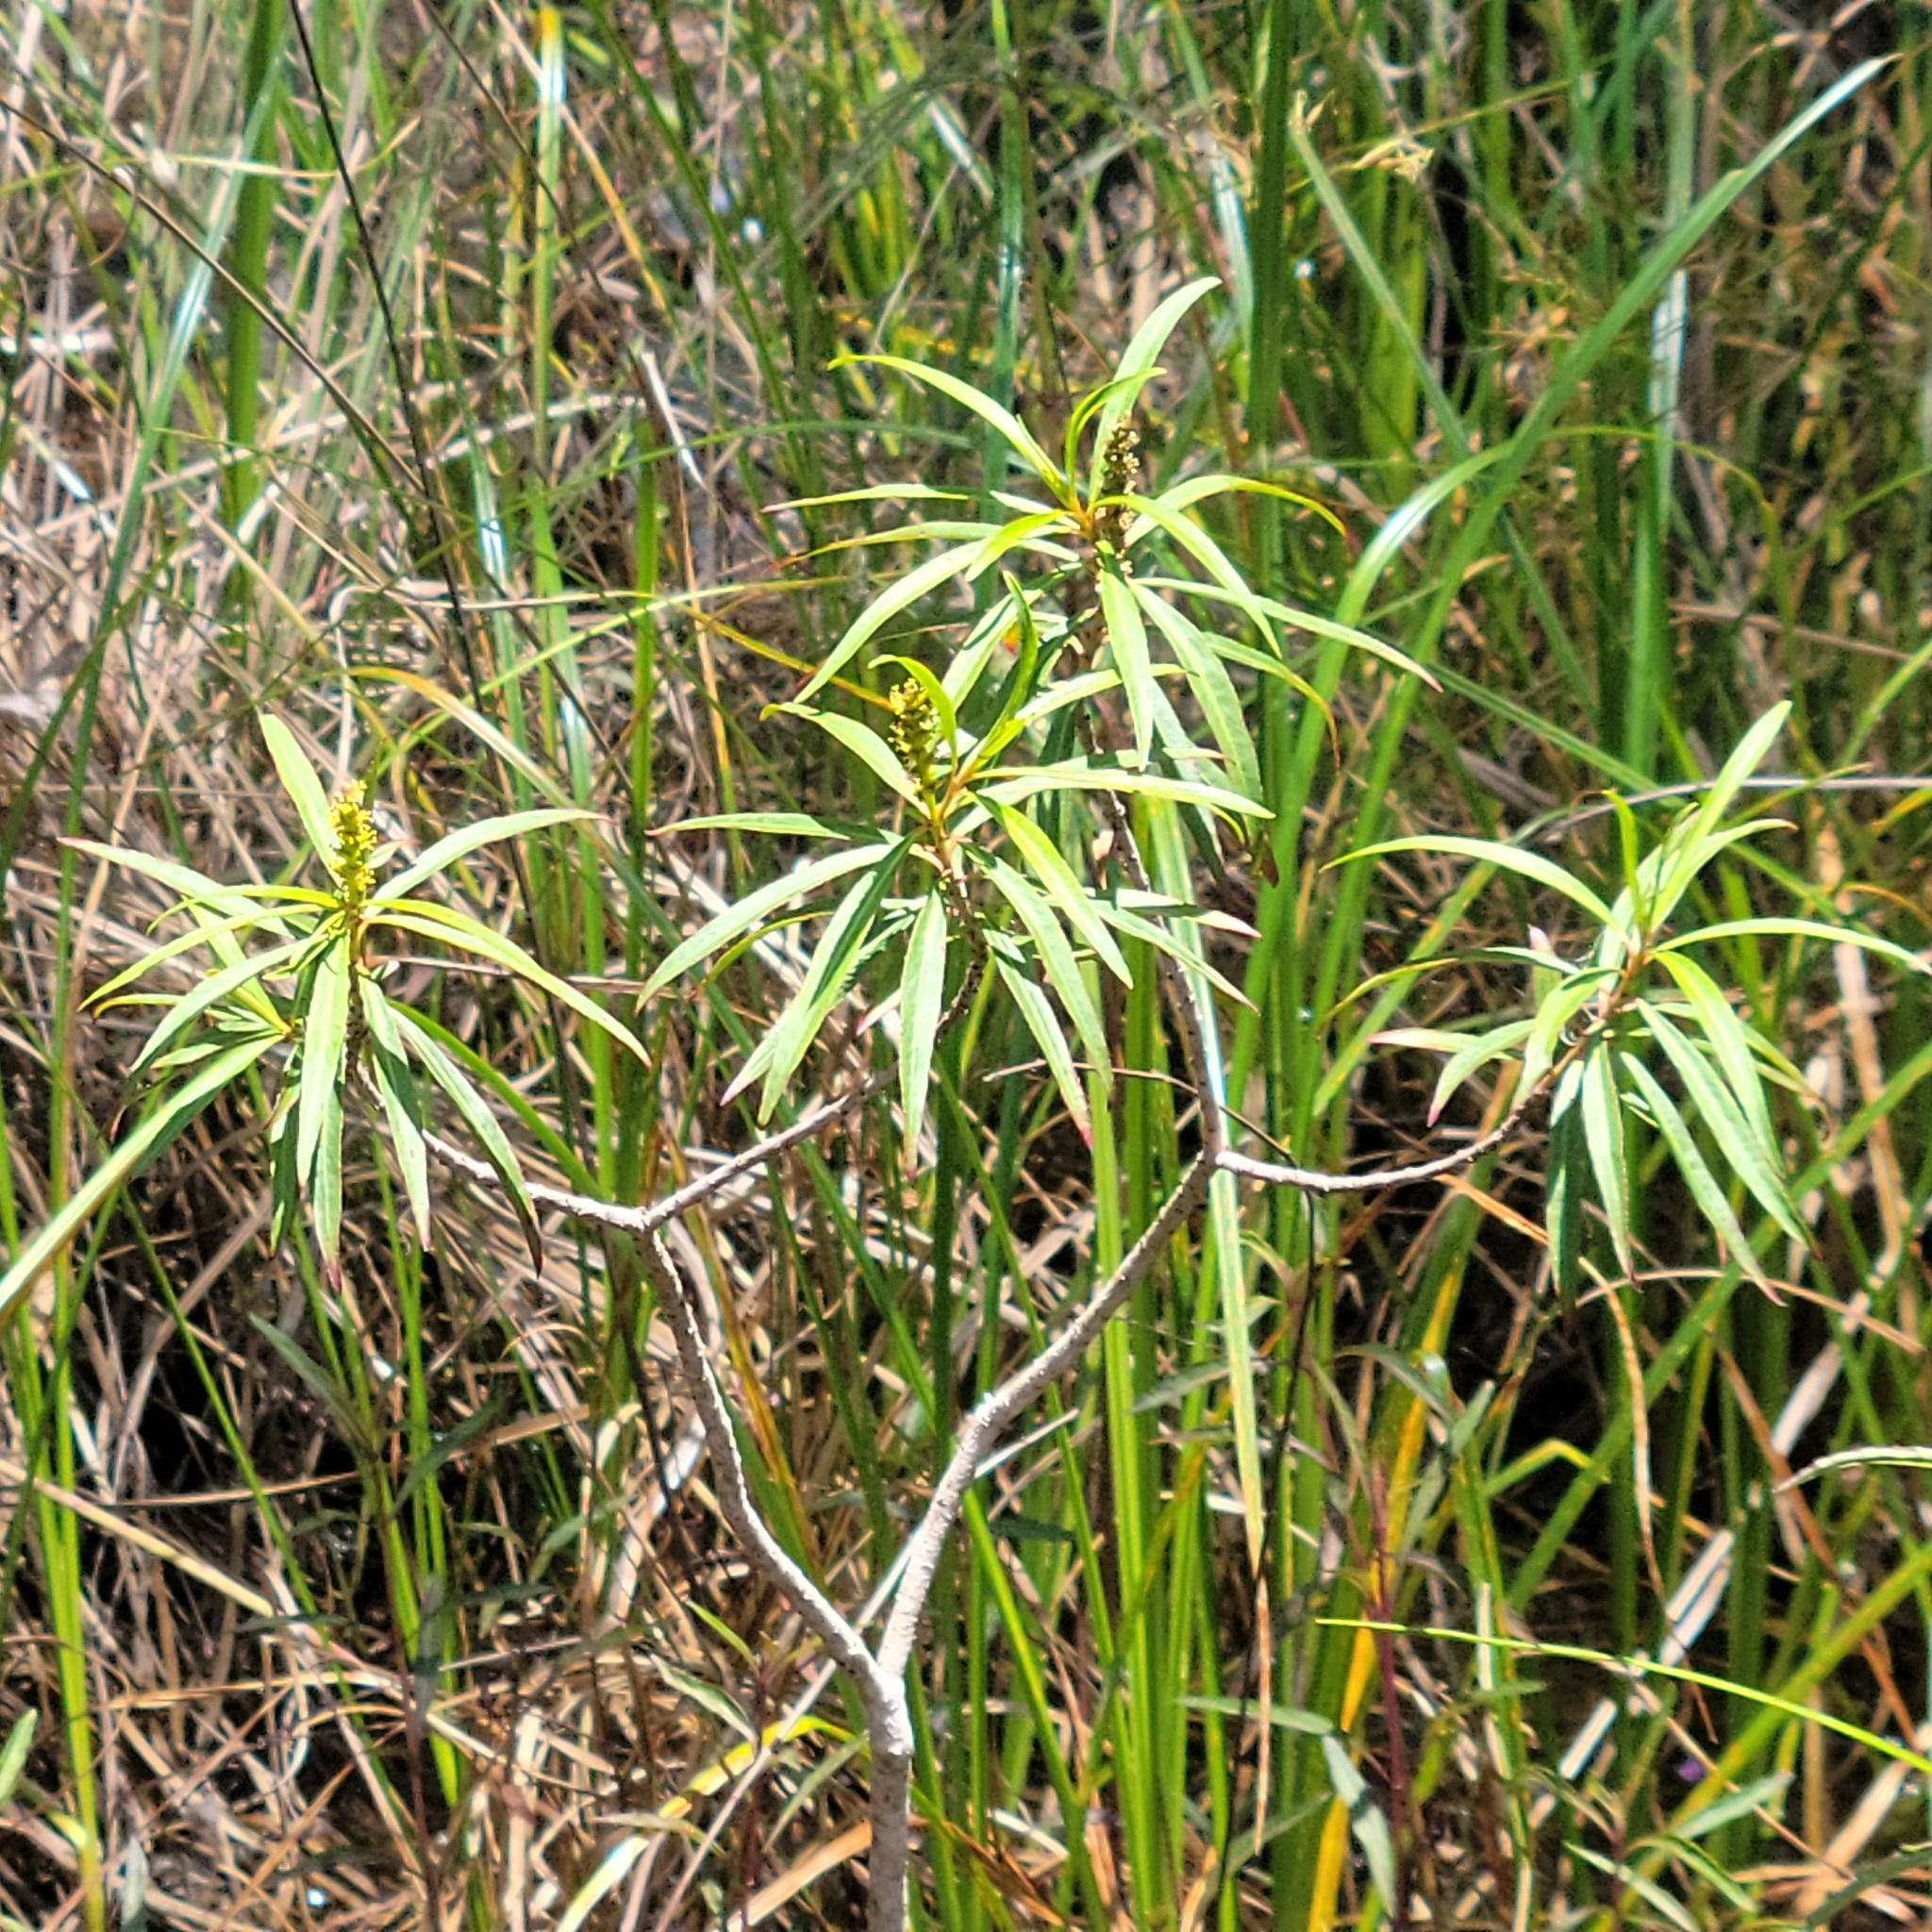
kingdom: Plantae
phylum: Tracheophyta
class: Magnoliopsida
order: Malpighiales
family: Euphorbiaceae
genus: Stillingia
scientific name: Stillingia aquatica
